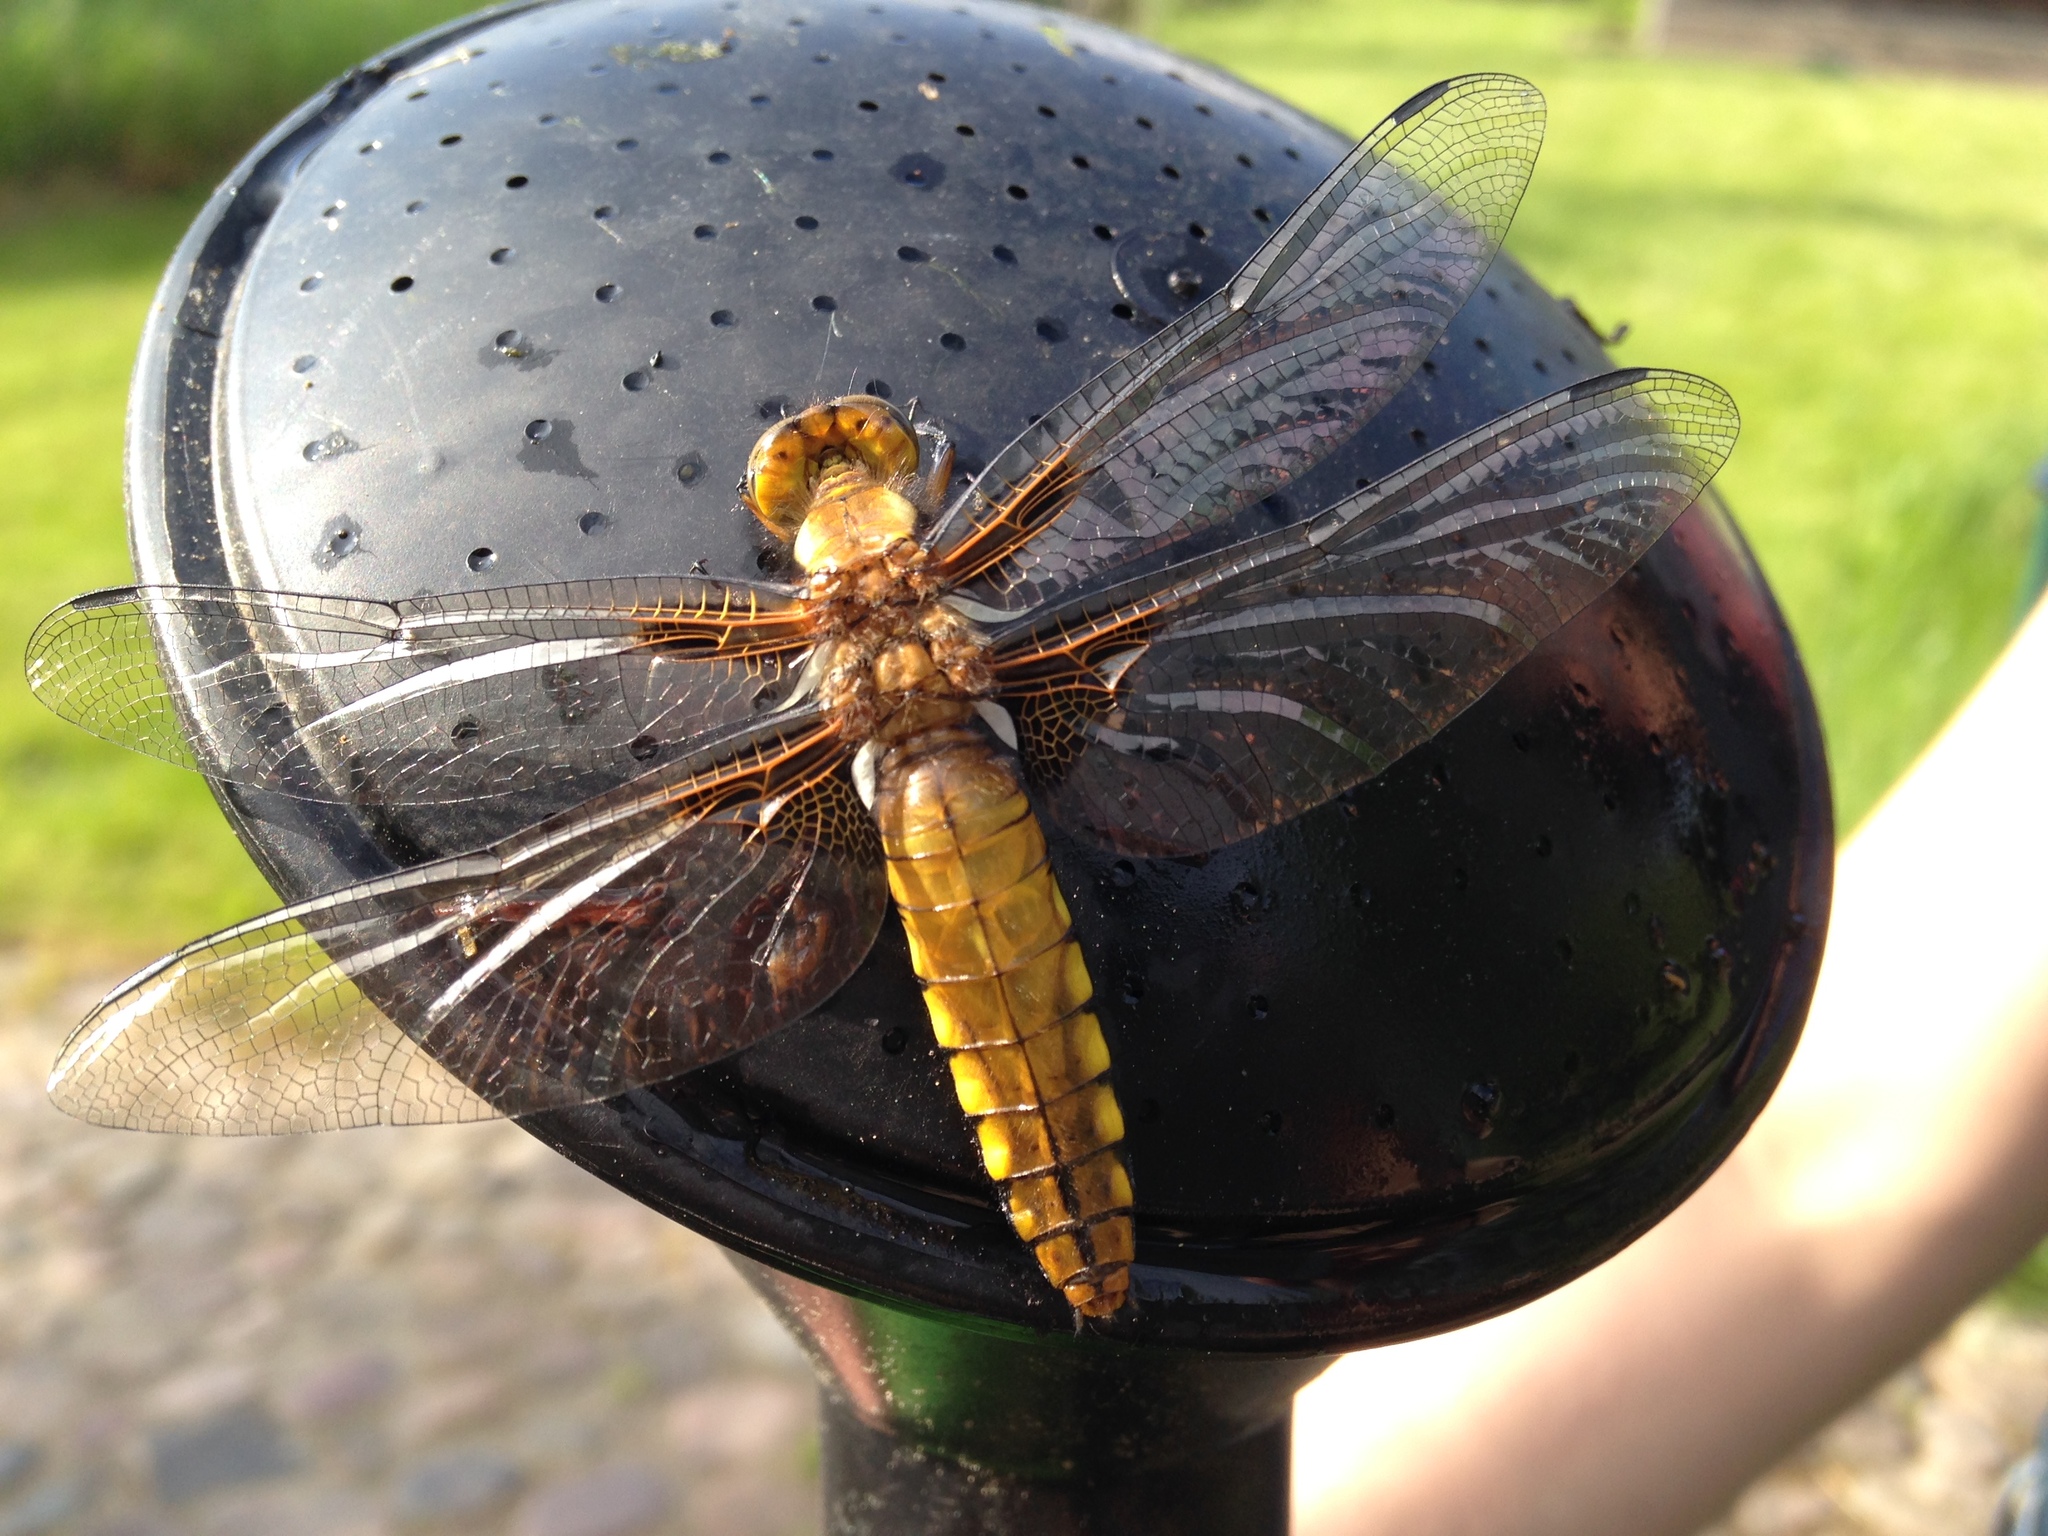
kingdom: Animalia
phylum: Arthropoda
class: Insecta
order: Odonata
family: Libellulidae
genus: Libellula
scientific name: Libellula depressa
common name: Broad-bodied chaser
